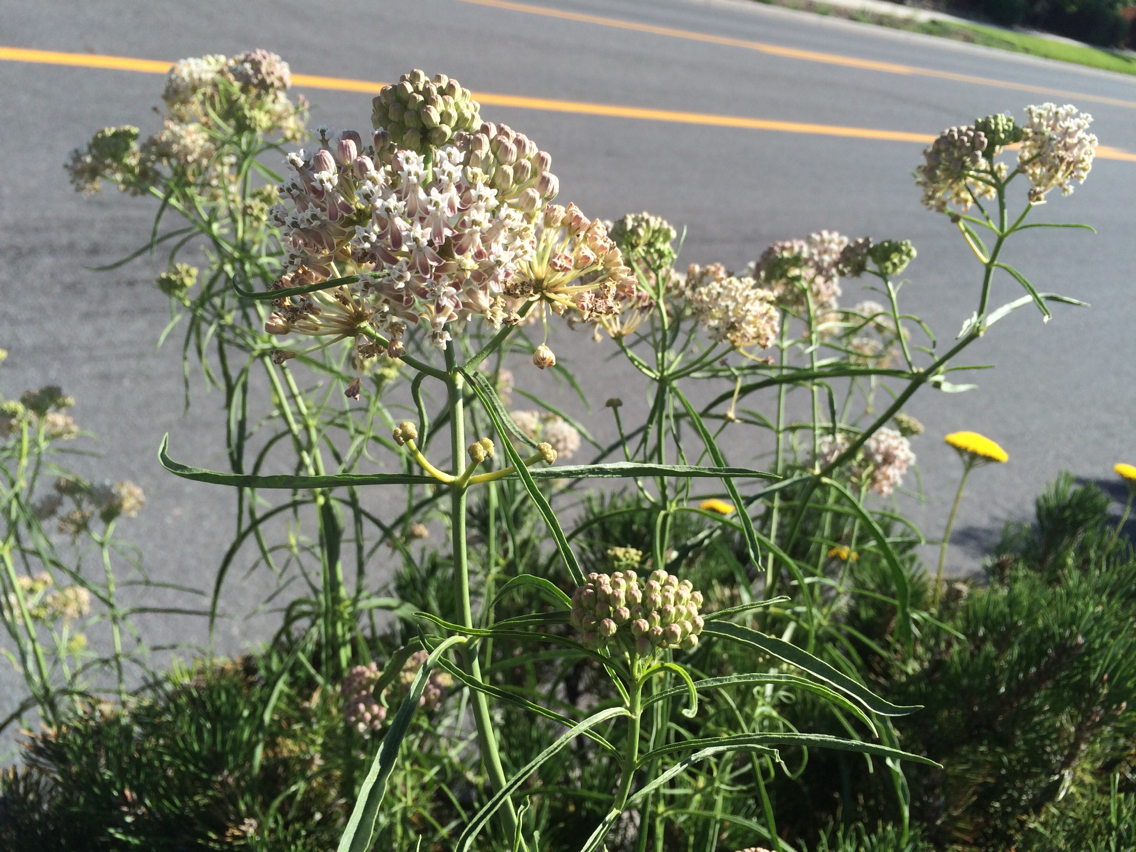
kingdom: Plantae
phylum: Tracheophyta
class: Magnoliopsida
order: Gentianales
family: Apocynaceae
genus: Asclepias
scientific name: Asclepias fascicularis
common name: Mexican milkweed
